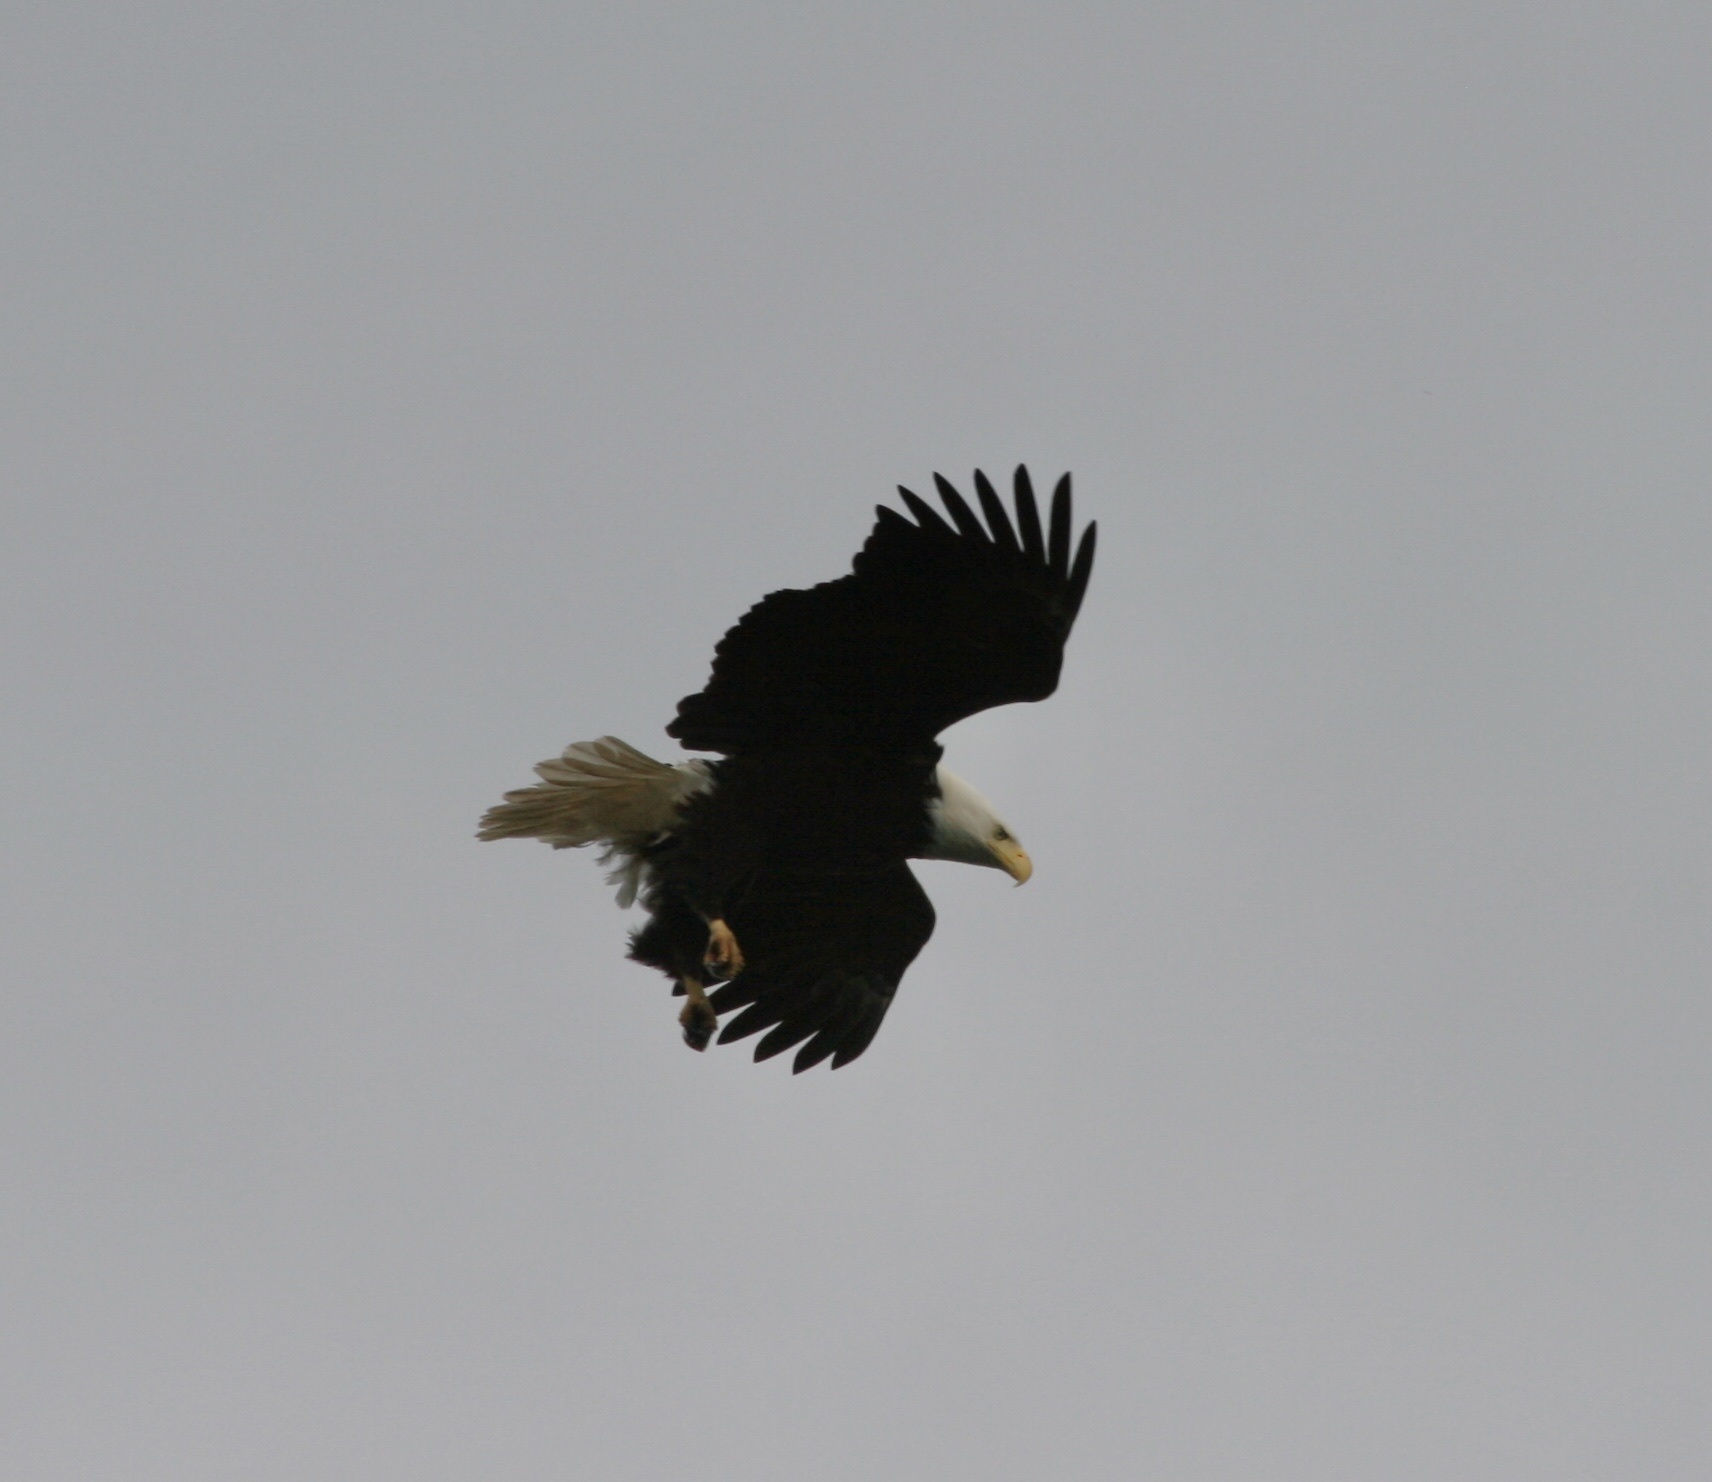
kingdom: Animalia
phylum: Chordata
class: Aves
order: Accipitriformes
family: Accipitridae
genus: Haliaeetus
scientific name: Haliaeetus leucocephalus
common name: Bald eagle
